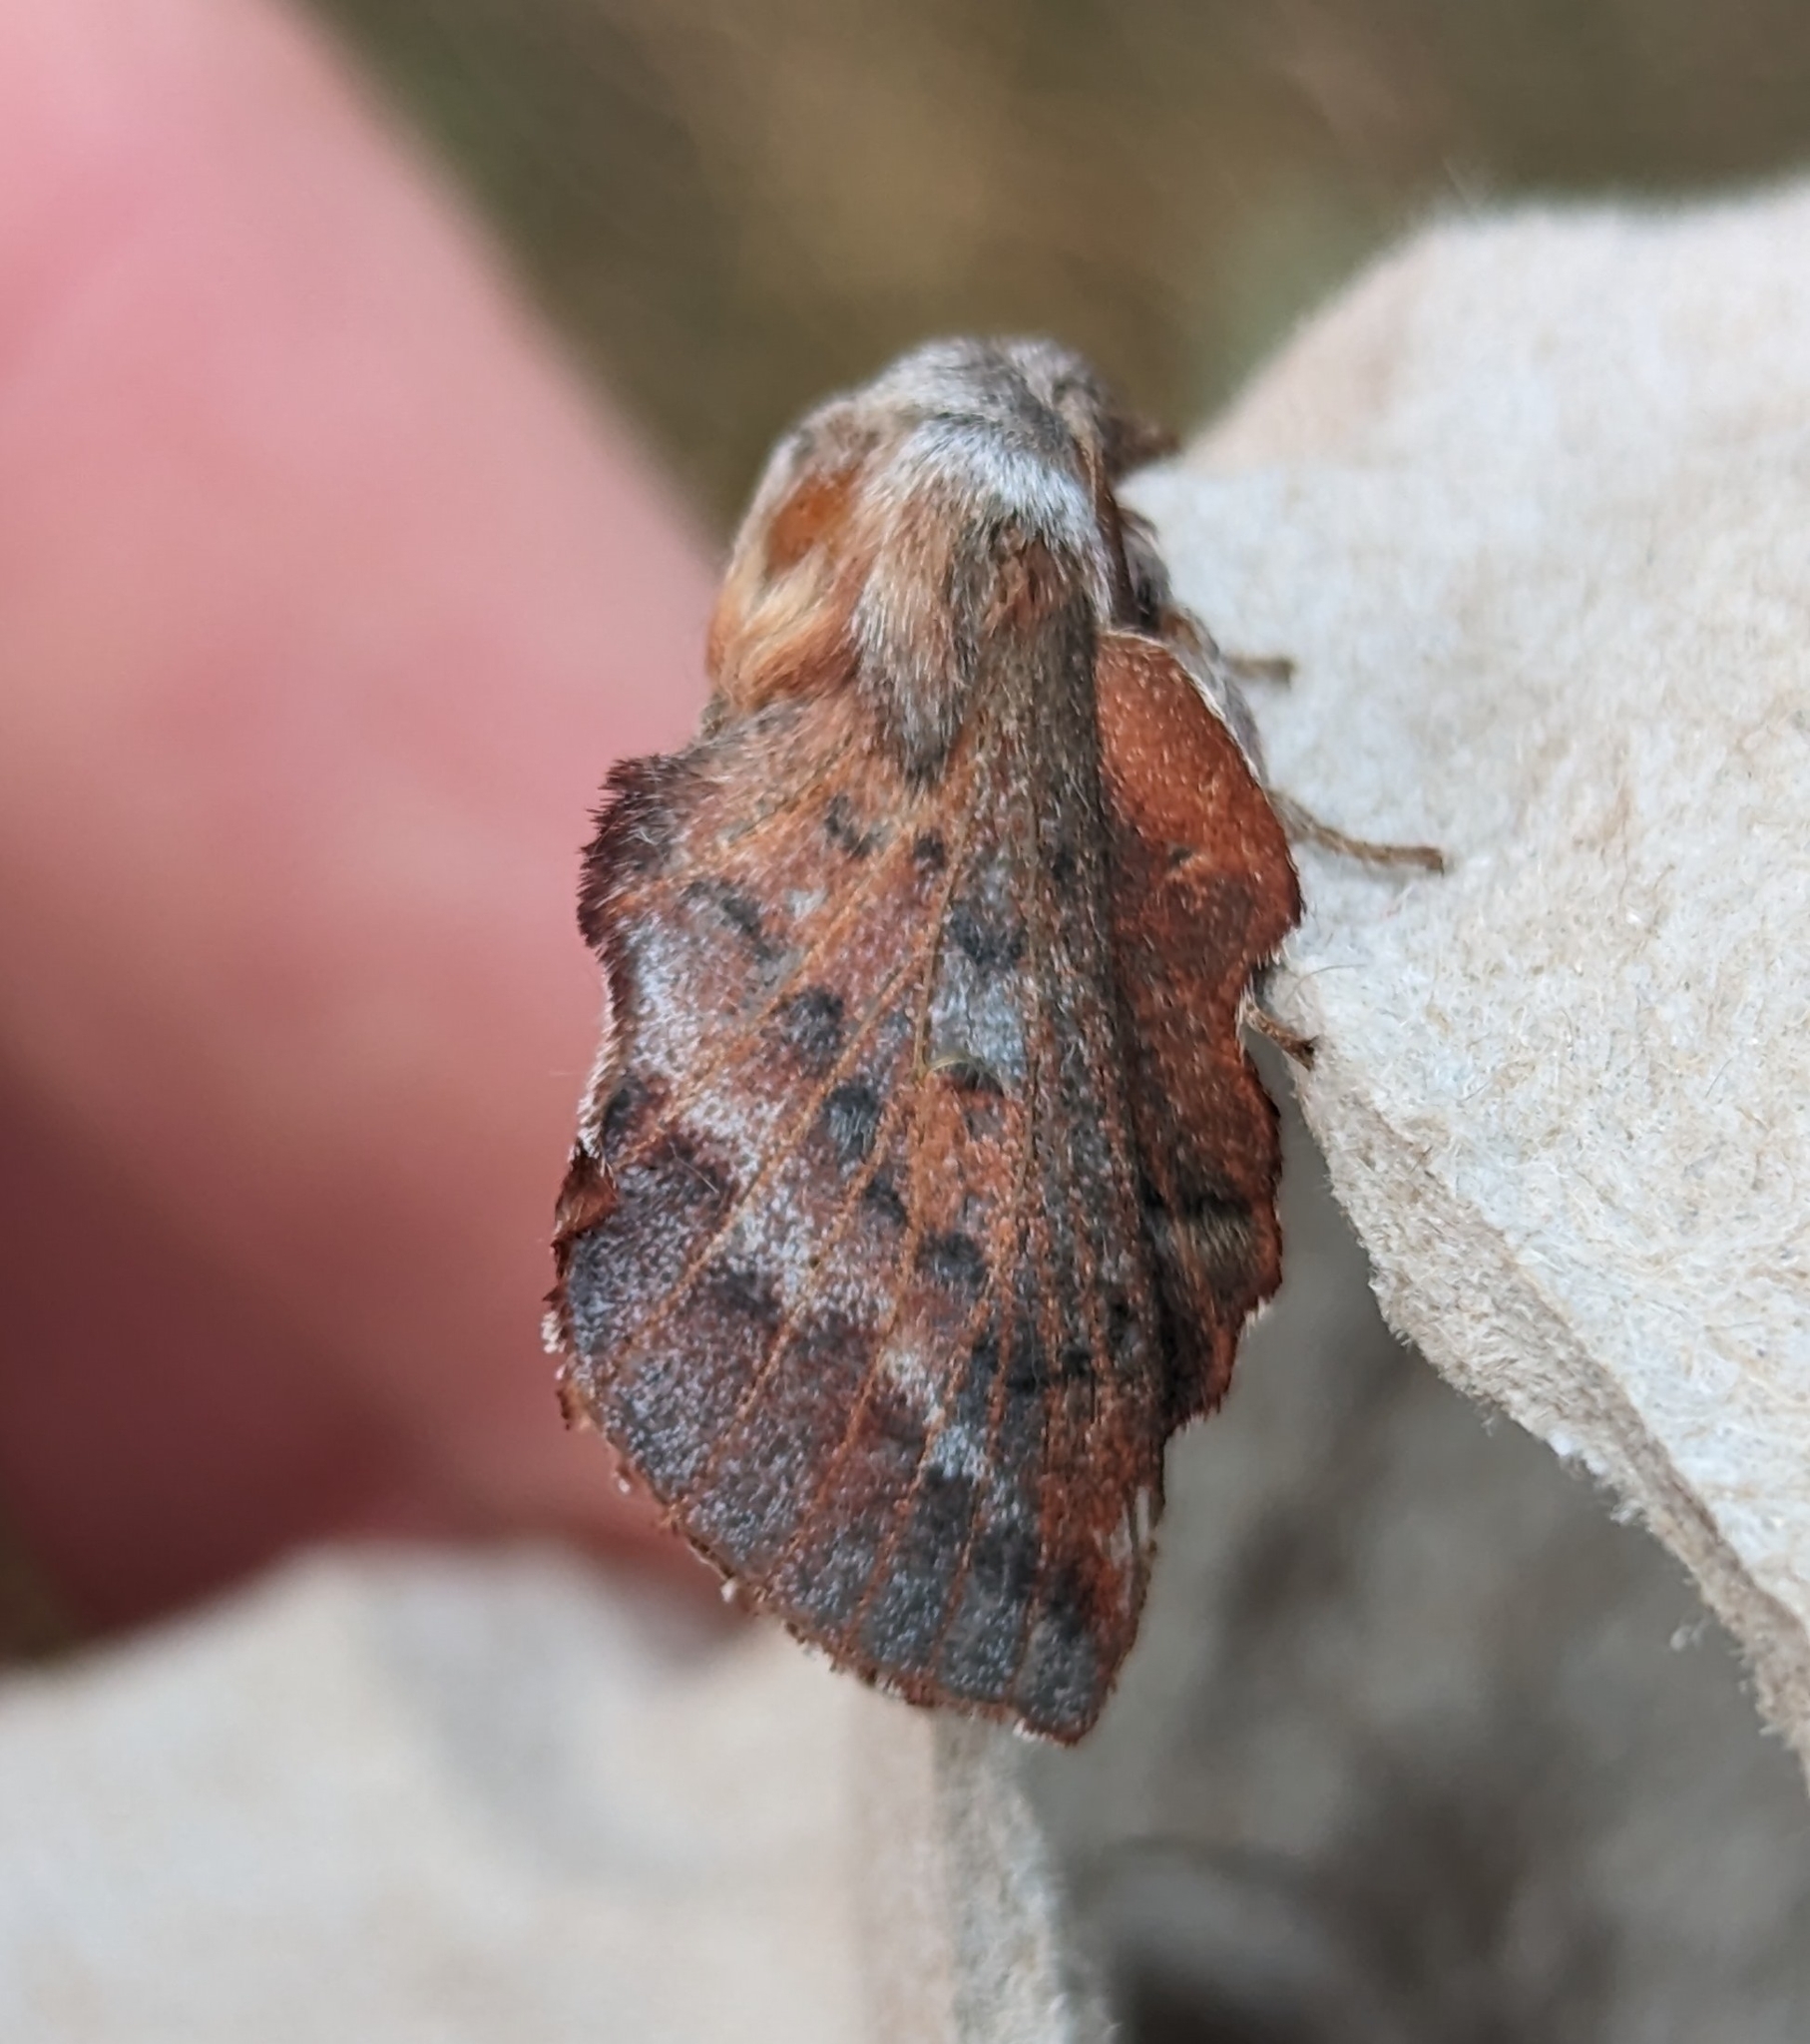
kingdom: Animalia
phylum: Arthropoda
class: Insecta
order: Lepidoptera
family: Lasiocampidae
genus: Phyllodesma
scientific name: Phyllodesma americana
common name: American lappet moth
